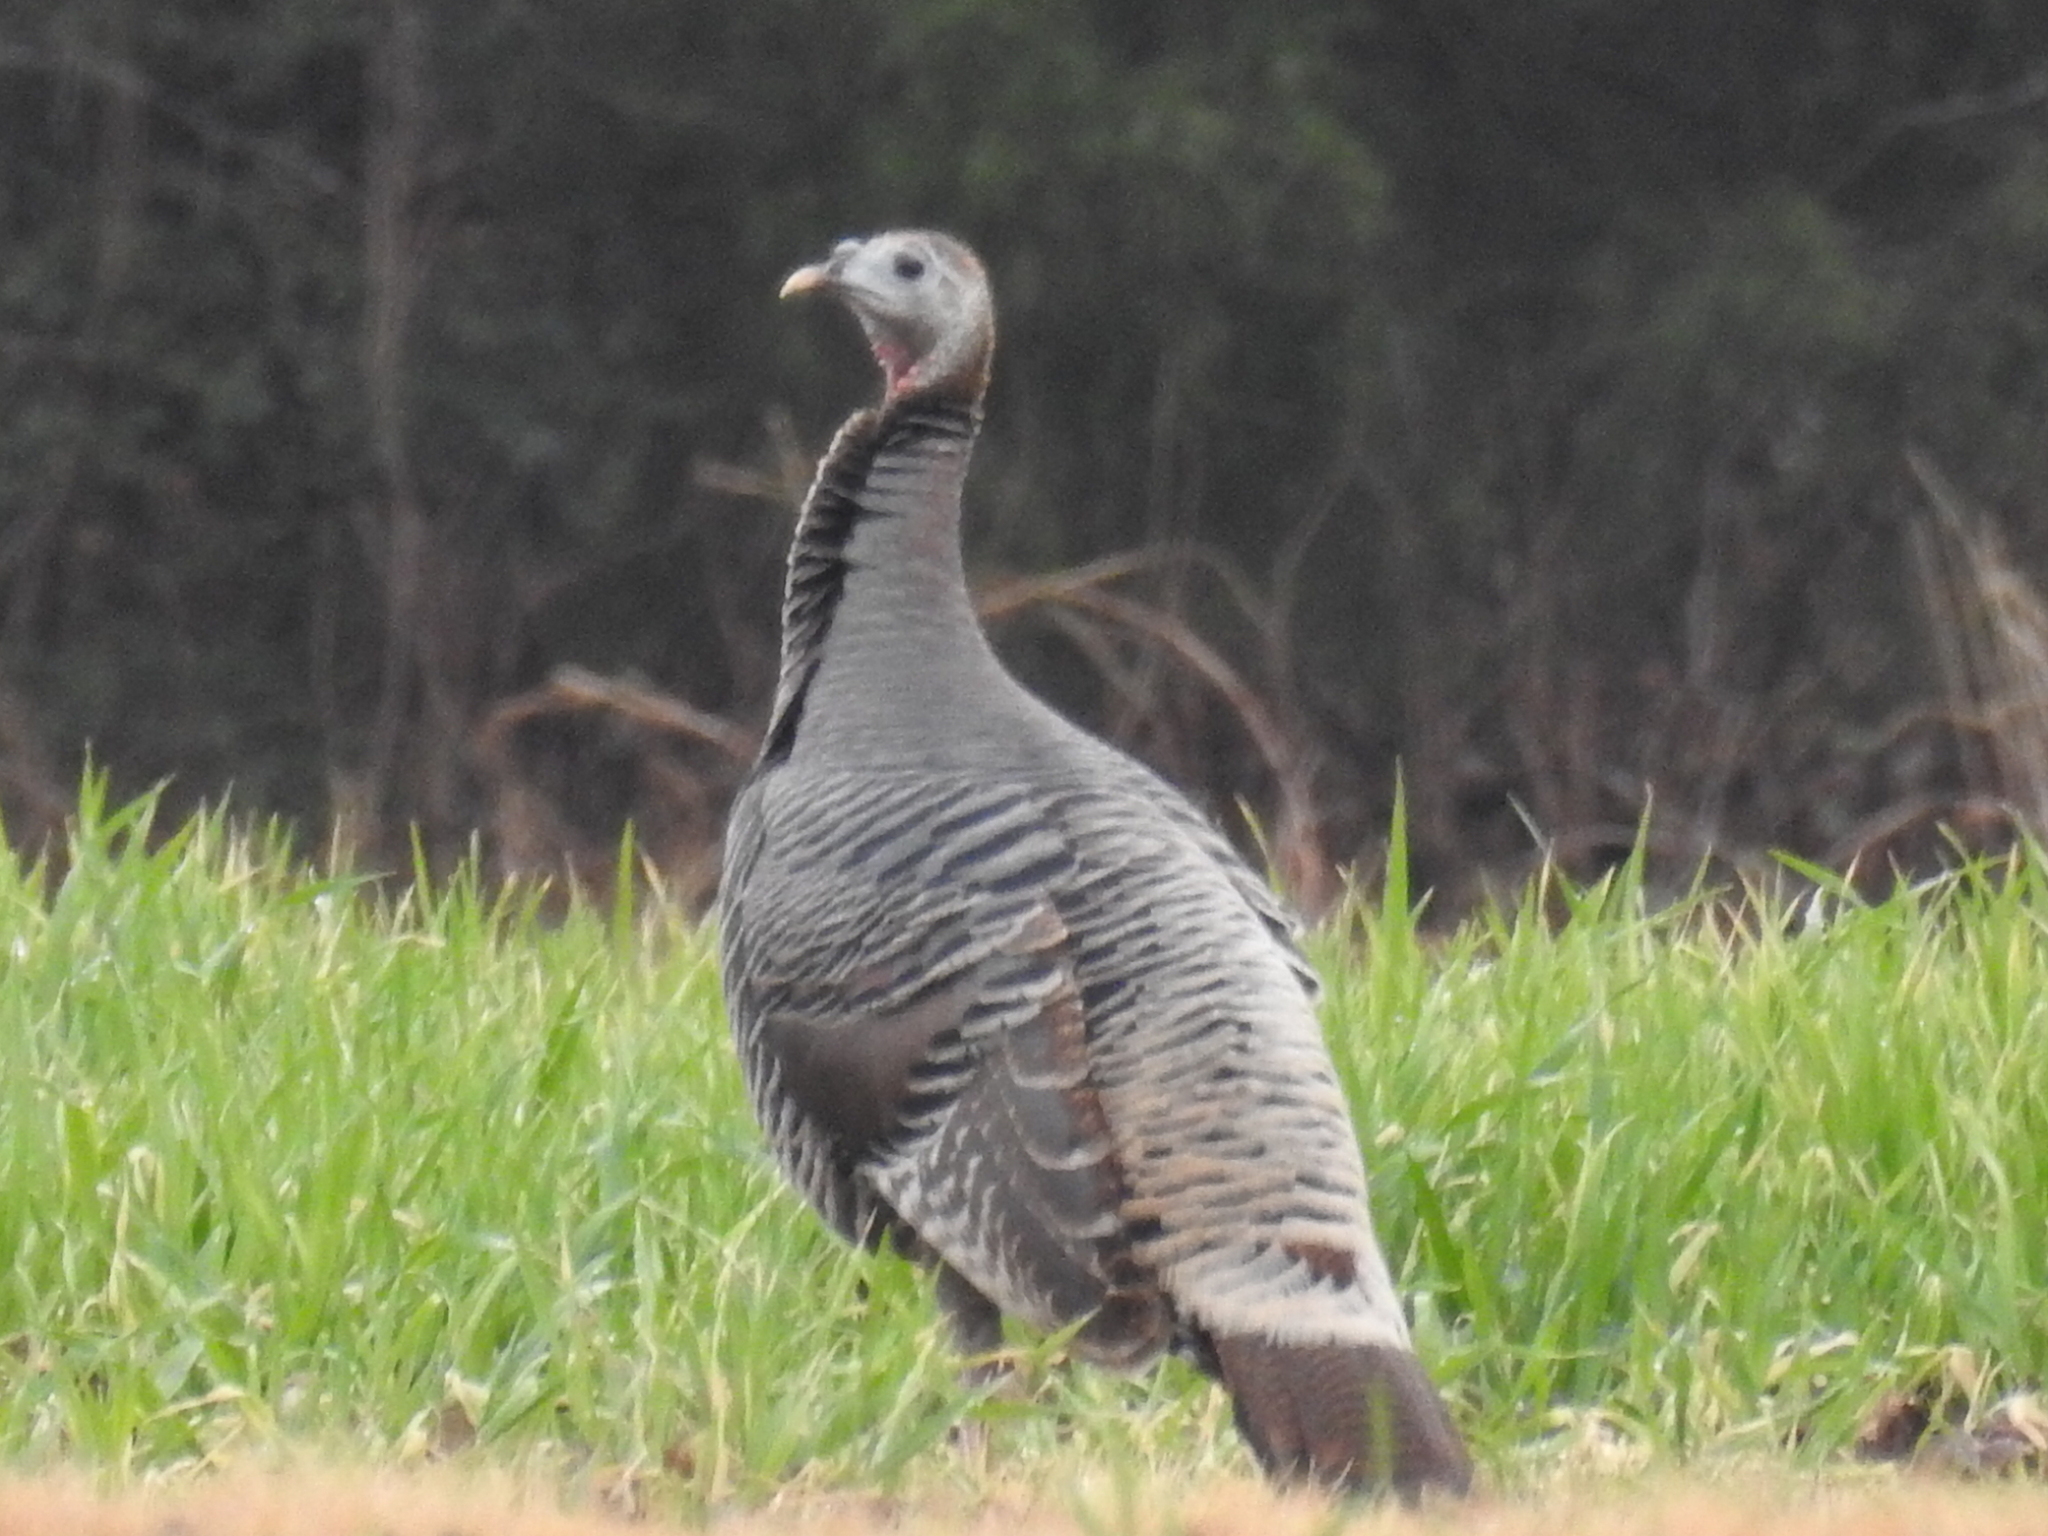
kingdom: Animalia
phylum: Chordata
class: Aves
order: Galliformes
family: Phasianidae
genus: Meleagris
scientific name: Meleagris gallopavo
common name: Wild turkey
